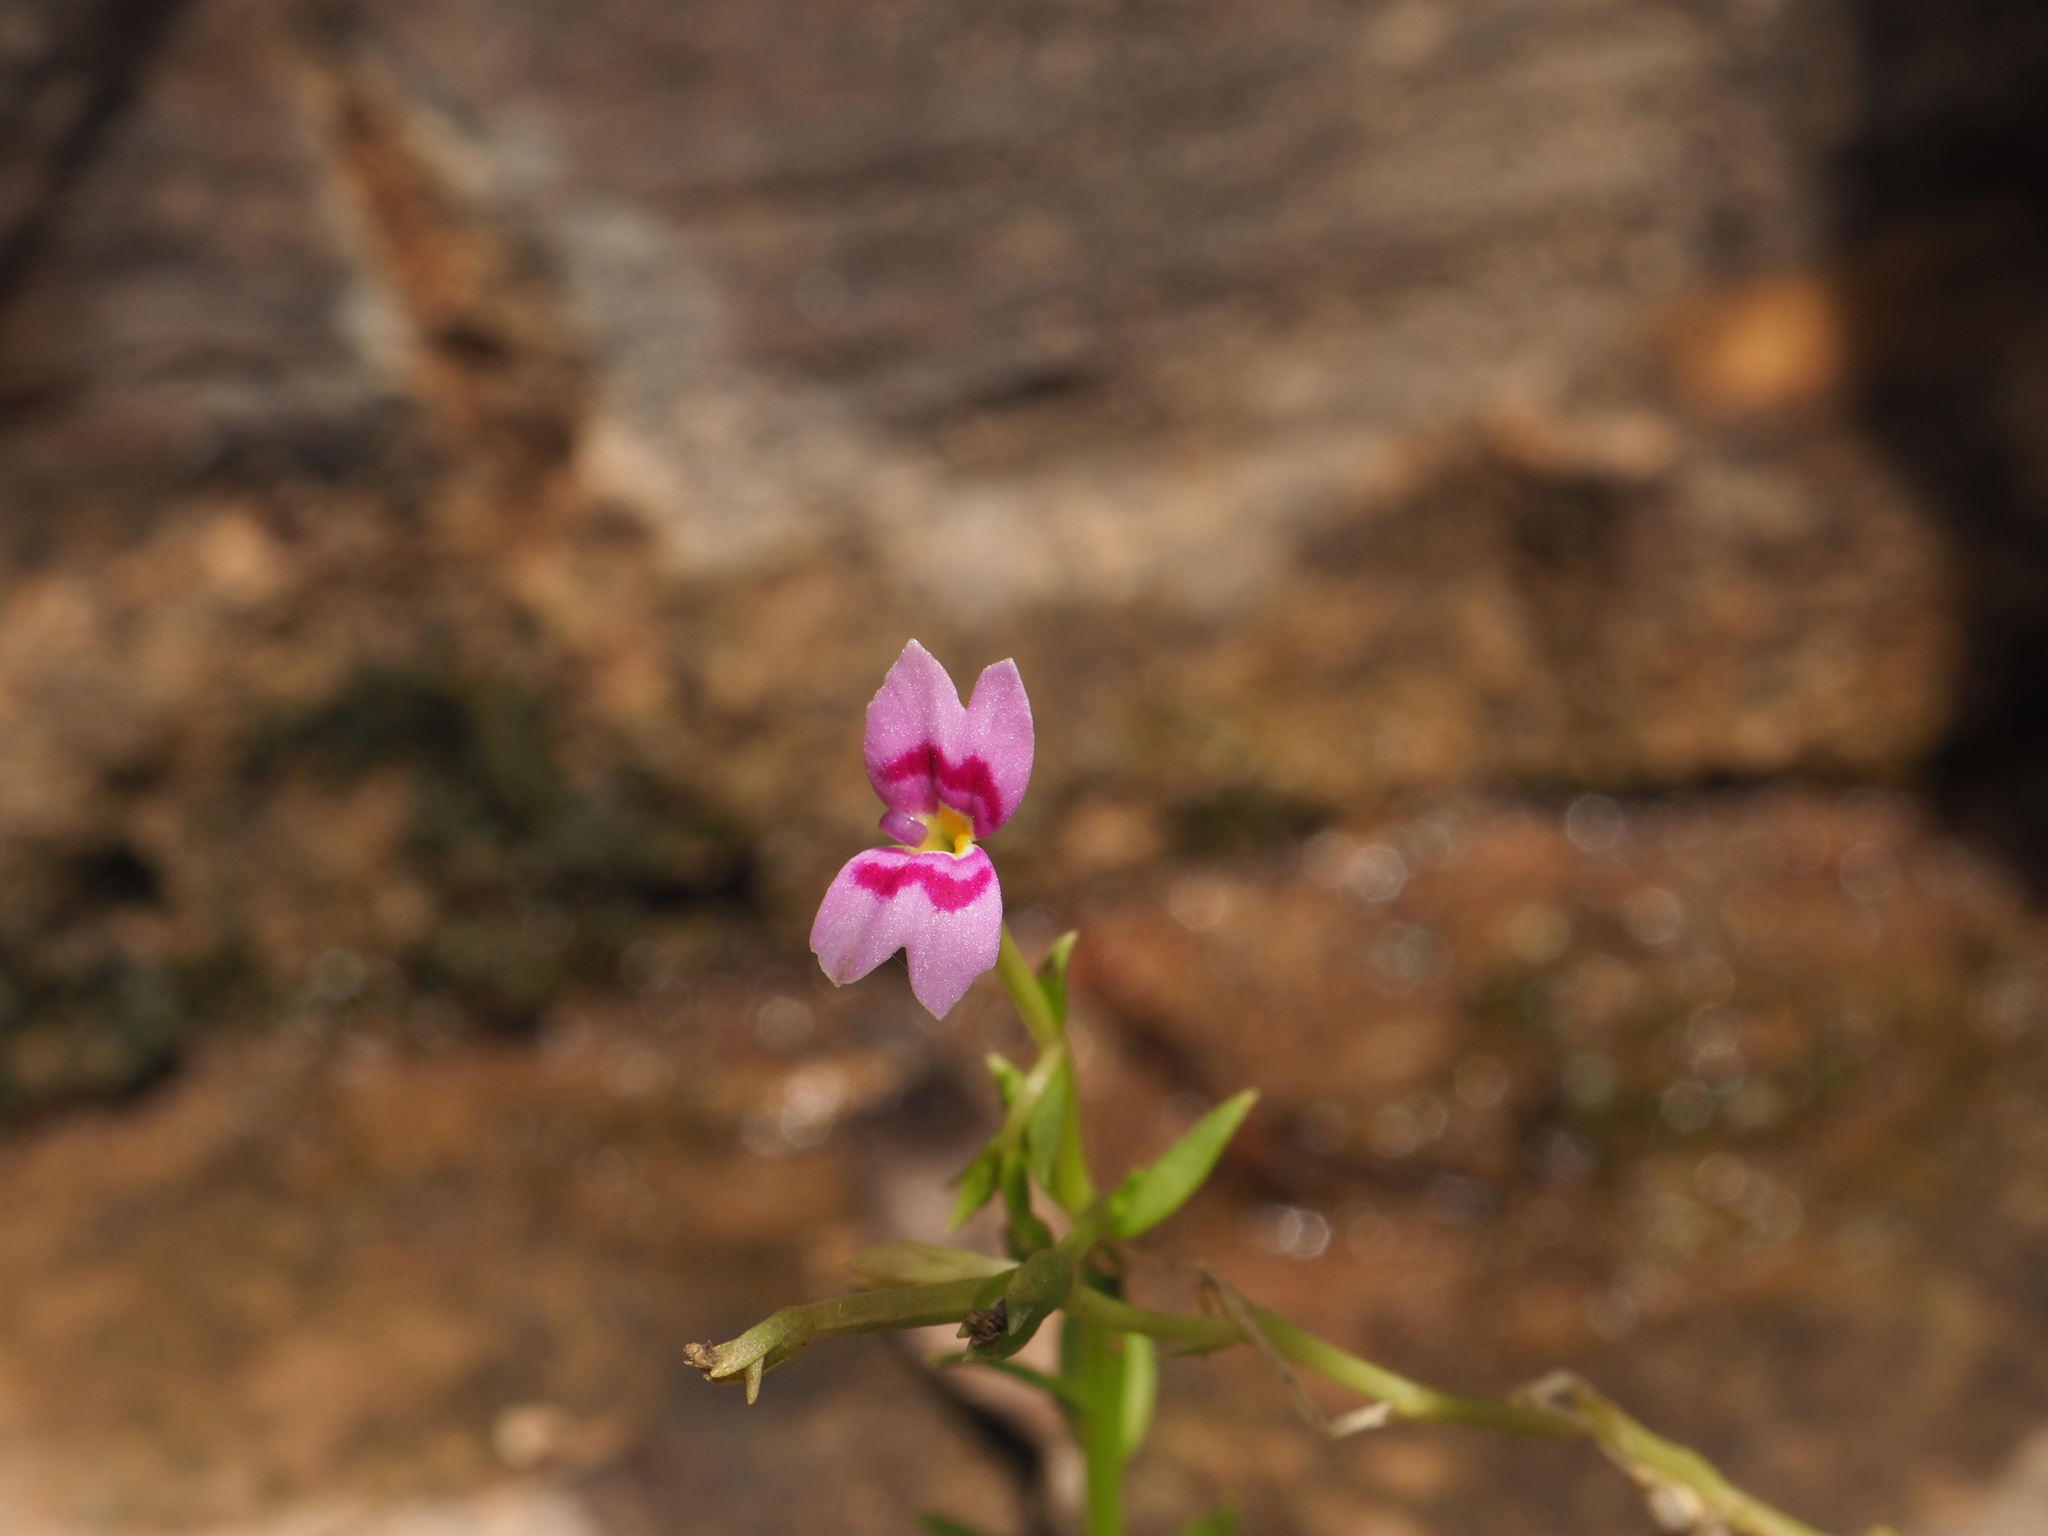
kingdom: Plantae
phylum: Tracheophyta
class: Magnoliopsida
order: Asterales
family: Stylidiaceae
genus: Stylidium
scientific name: Stylidium fluminense
